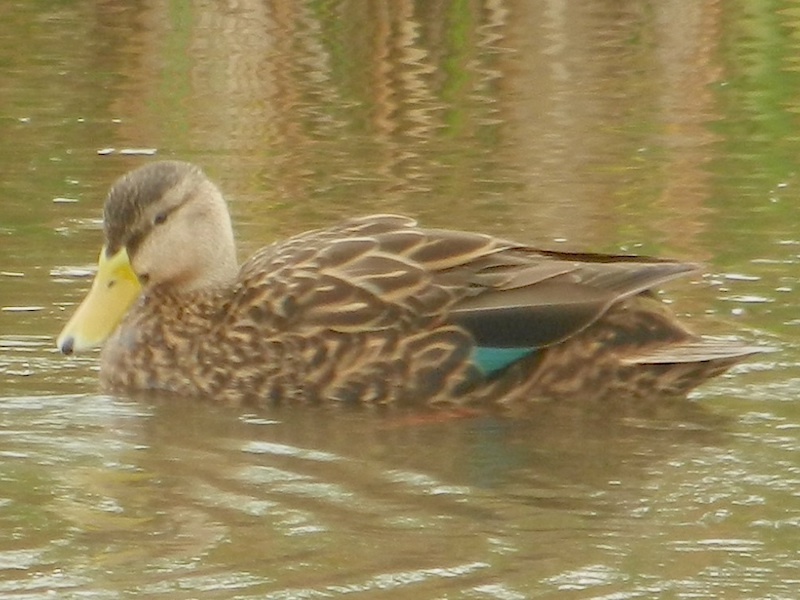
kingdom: Animalia
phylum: Chordata
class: Aves
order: Anseriformes
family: Anatidae
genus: Anas
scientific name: Anas fulvigula
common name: Mottled duck
